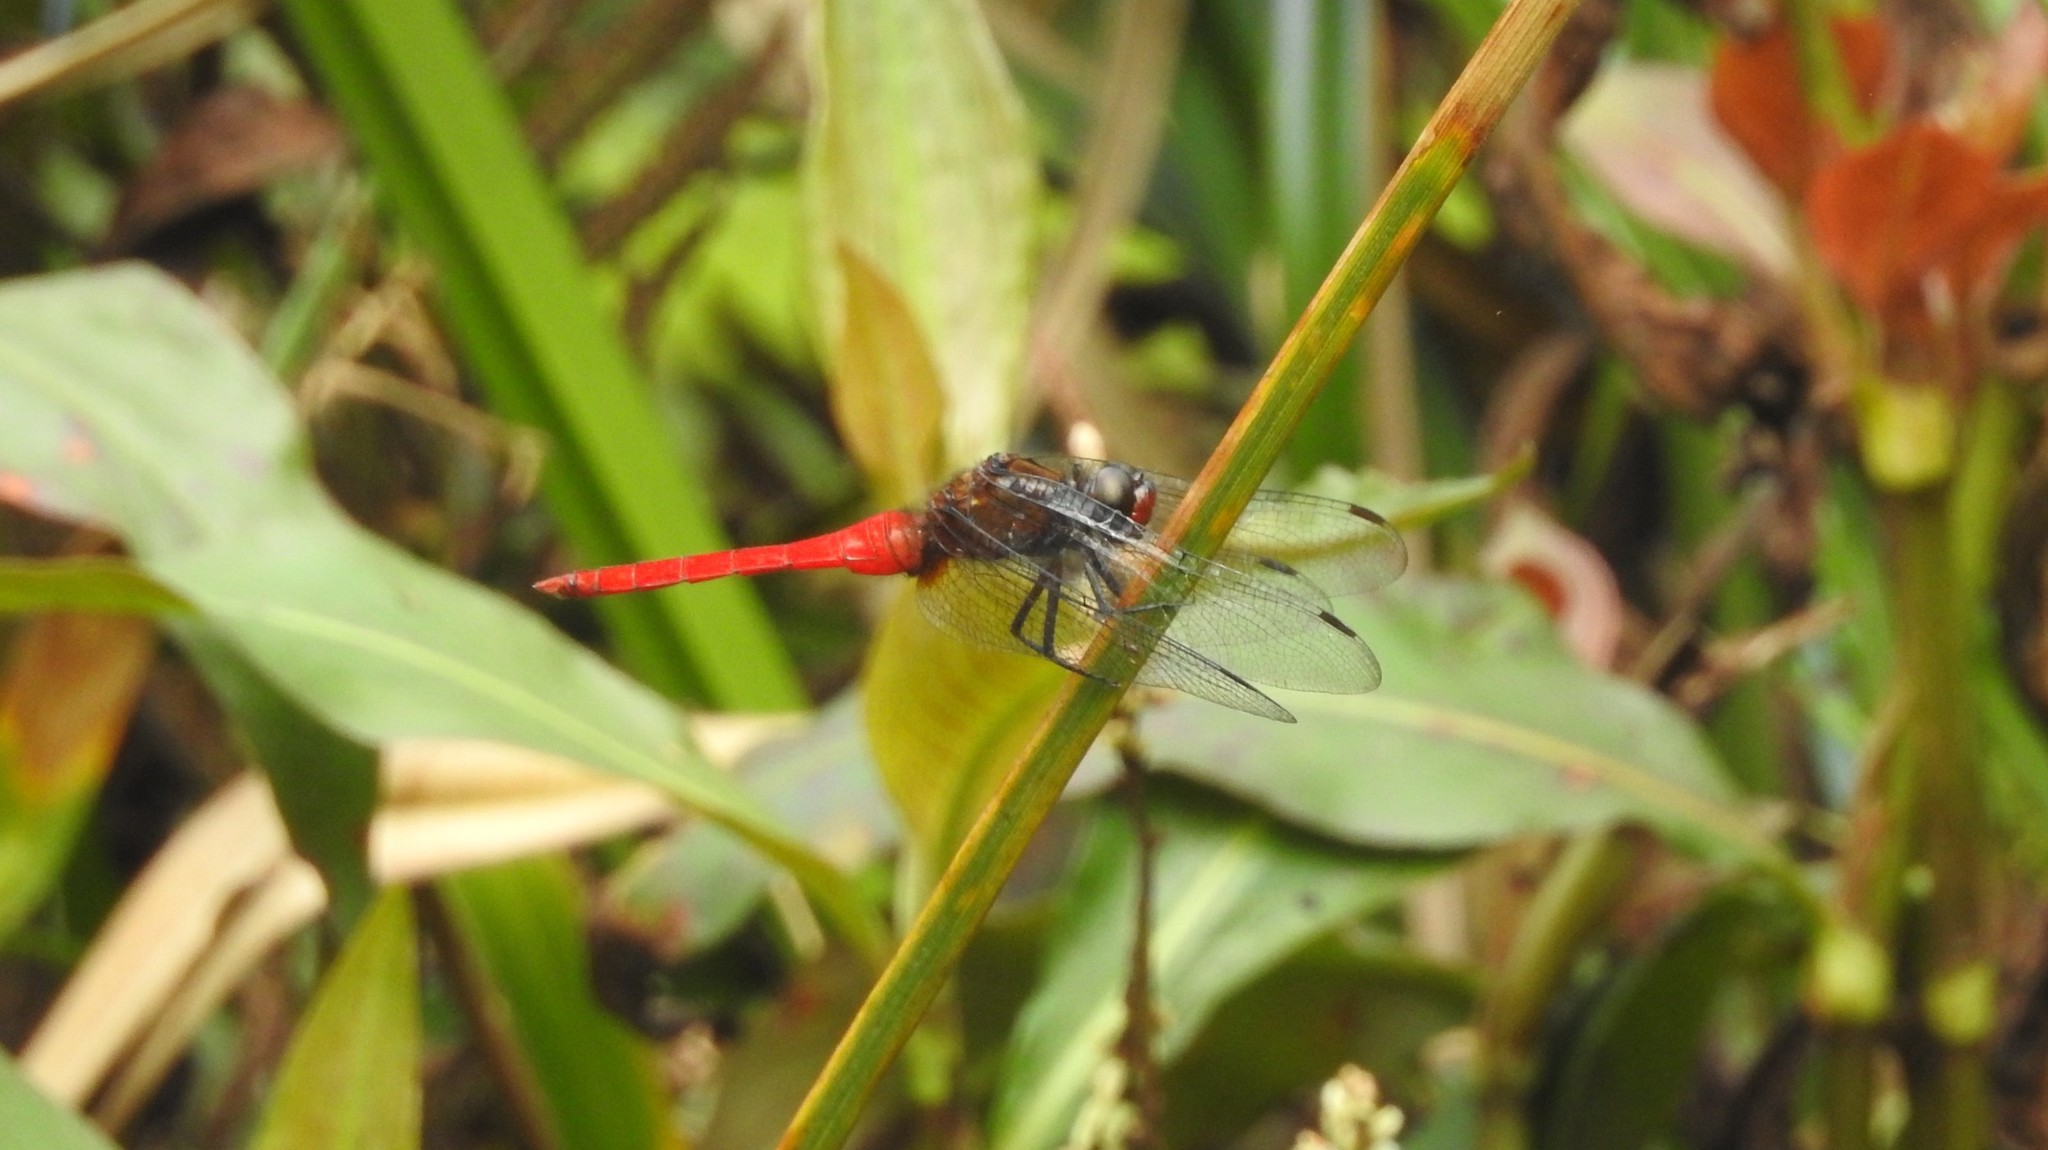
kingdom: Animalia
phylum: Arthropoda
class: Insecta
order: Odonata
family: Libellulidae
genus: Orthetrum
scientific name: Orthetrum chrysis
